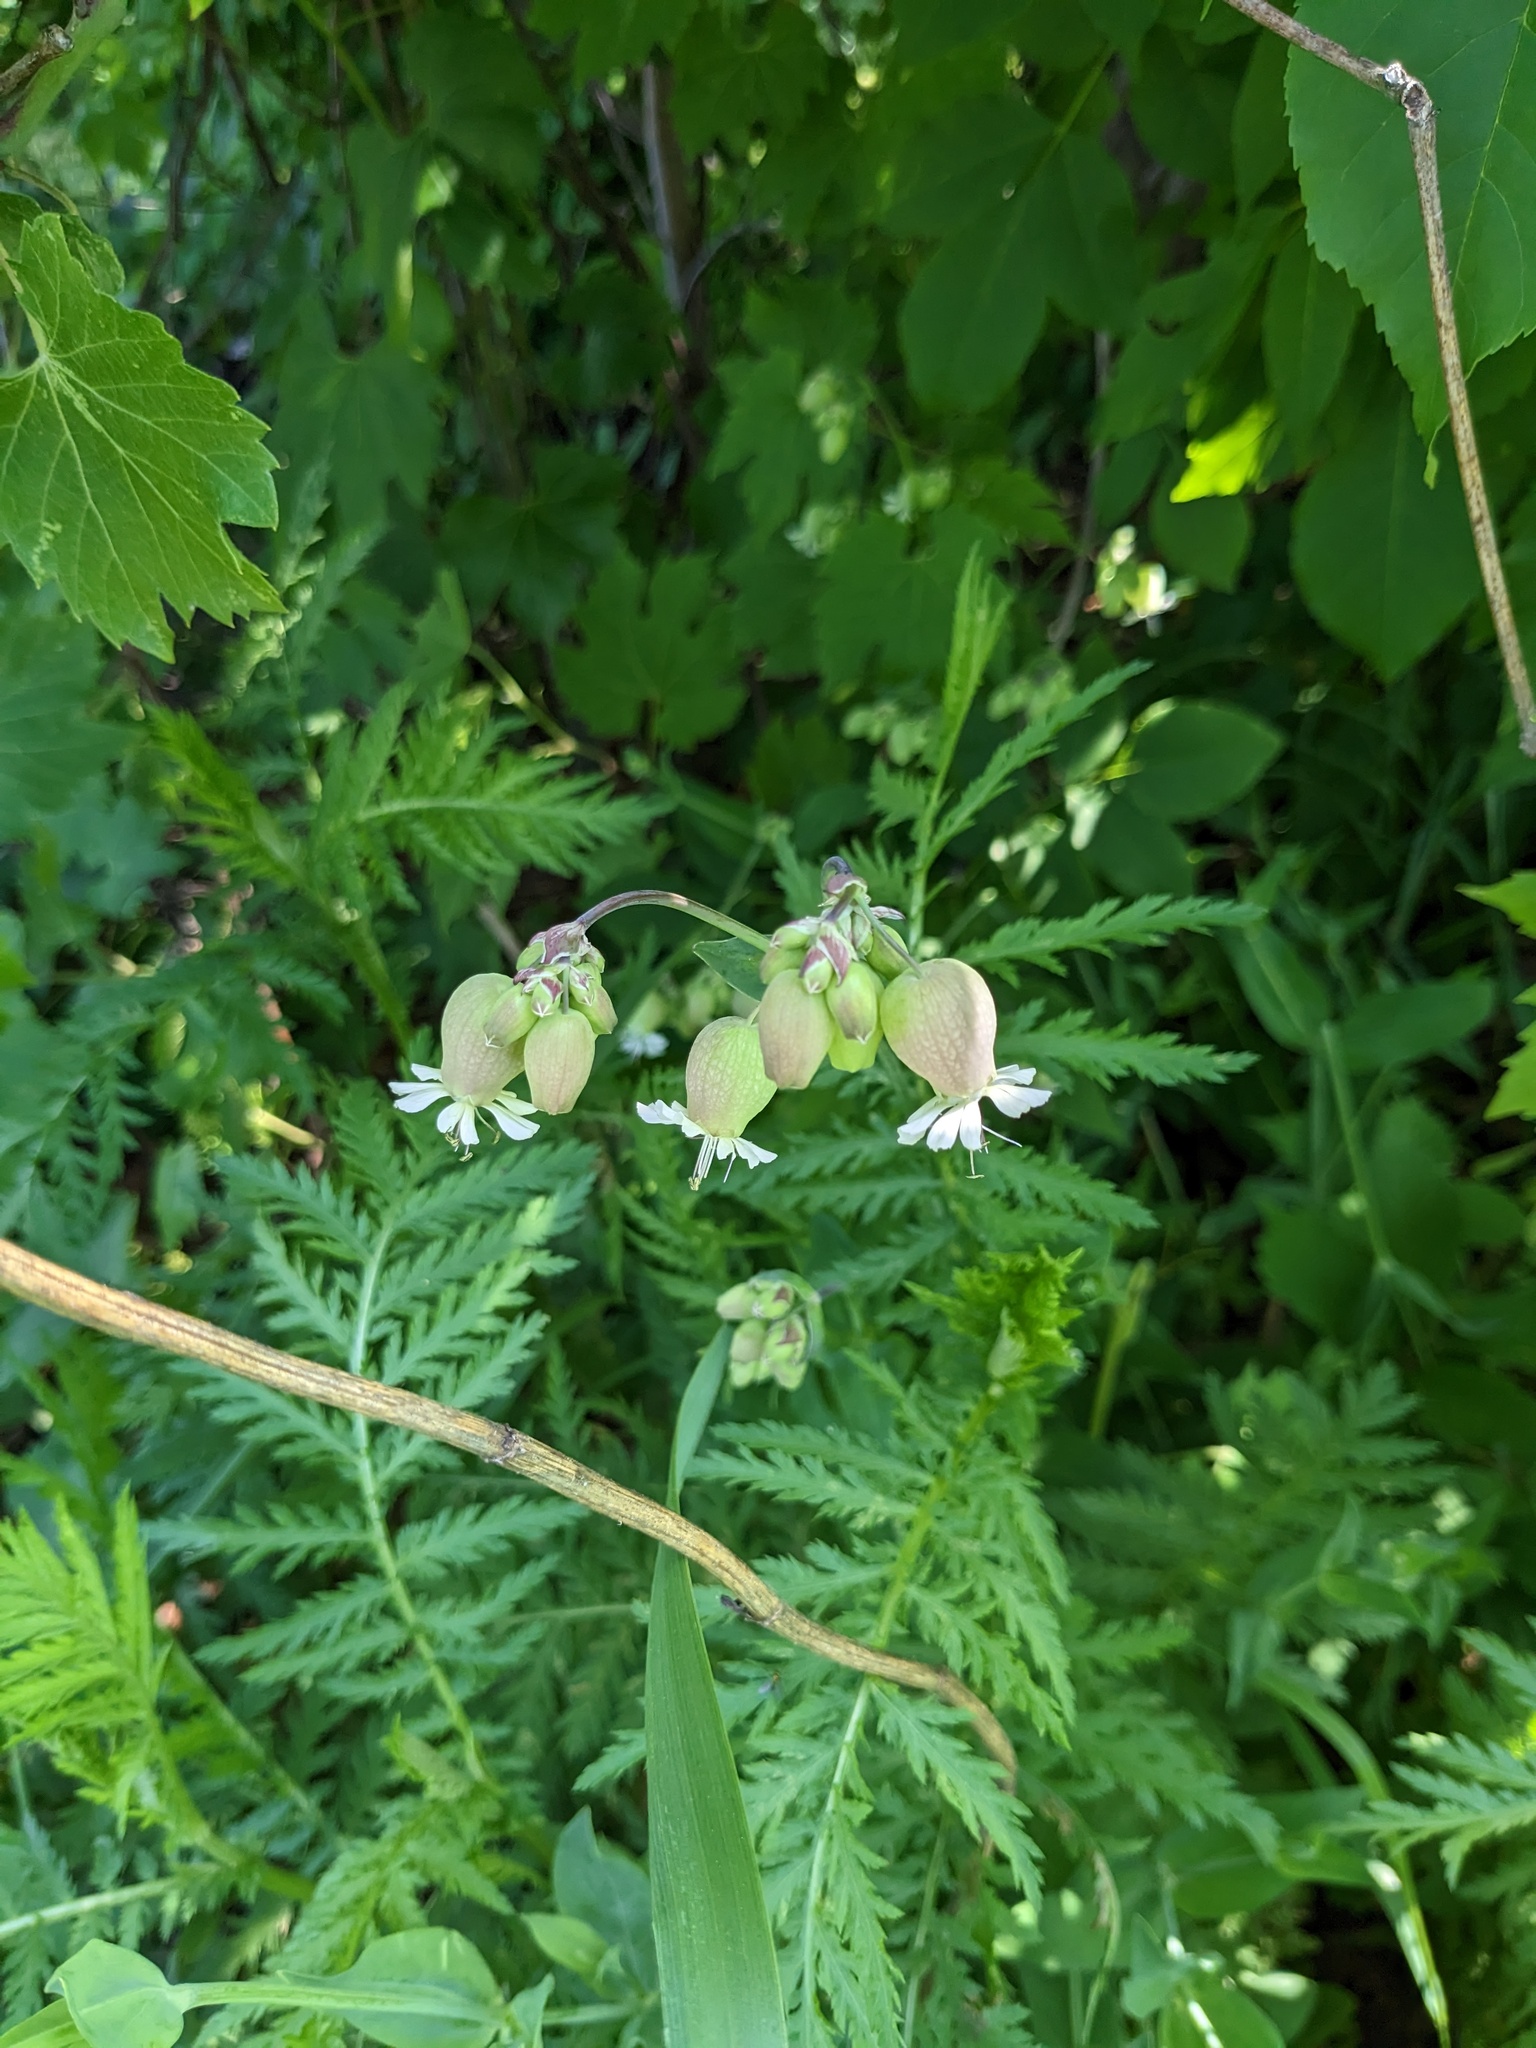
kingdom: Plantae
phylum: Tracheophyta
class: Magnoliopsida
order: Caryophyllales
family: Caryophyllaceae
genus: Silene
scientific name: Silene vulgaris
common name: Bladder campion
